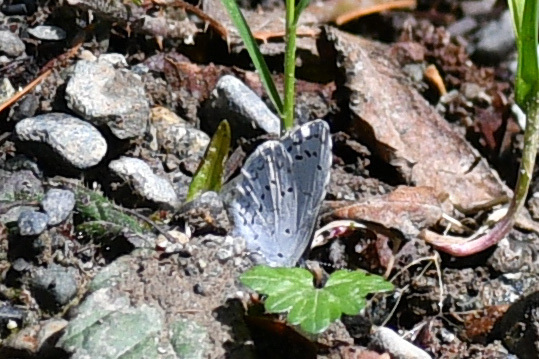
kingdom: Animalia
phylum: Arthropoda
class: Insecta
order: Lepidoptera
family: Lycaenidae
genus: Celastrina
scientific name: Celastrina ladon
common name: Spring azure
